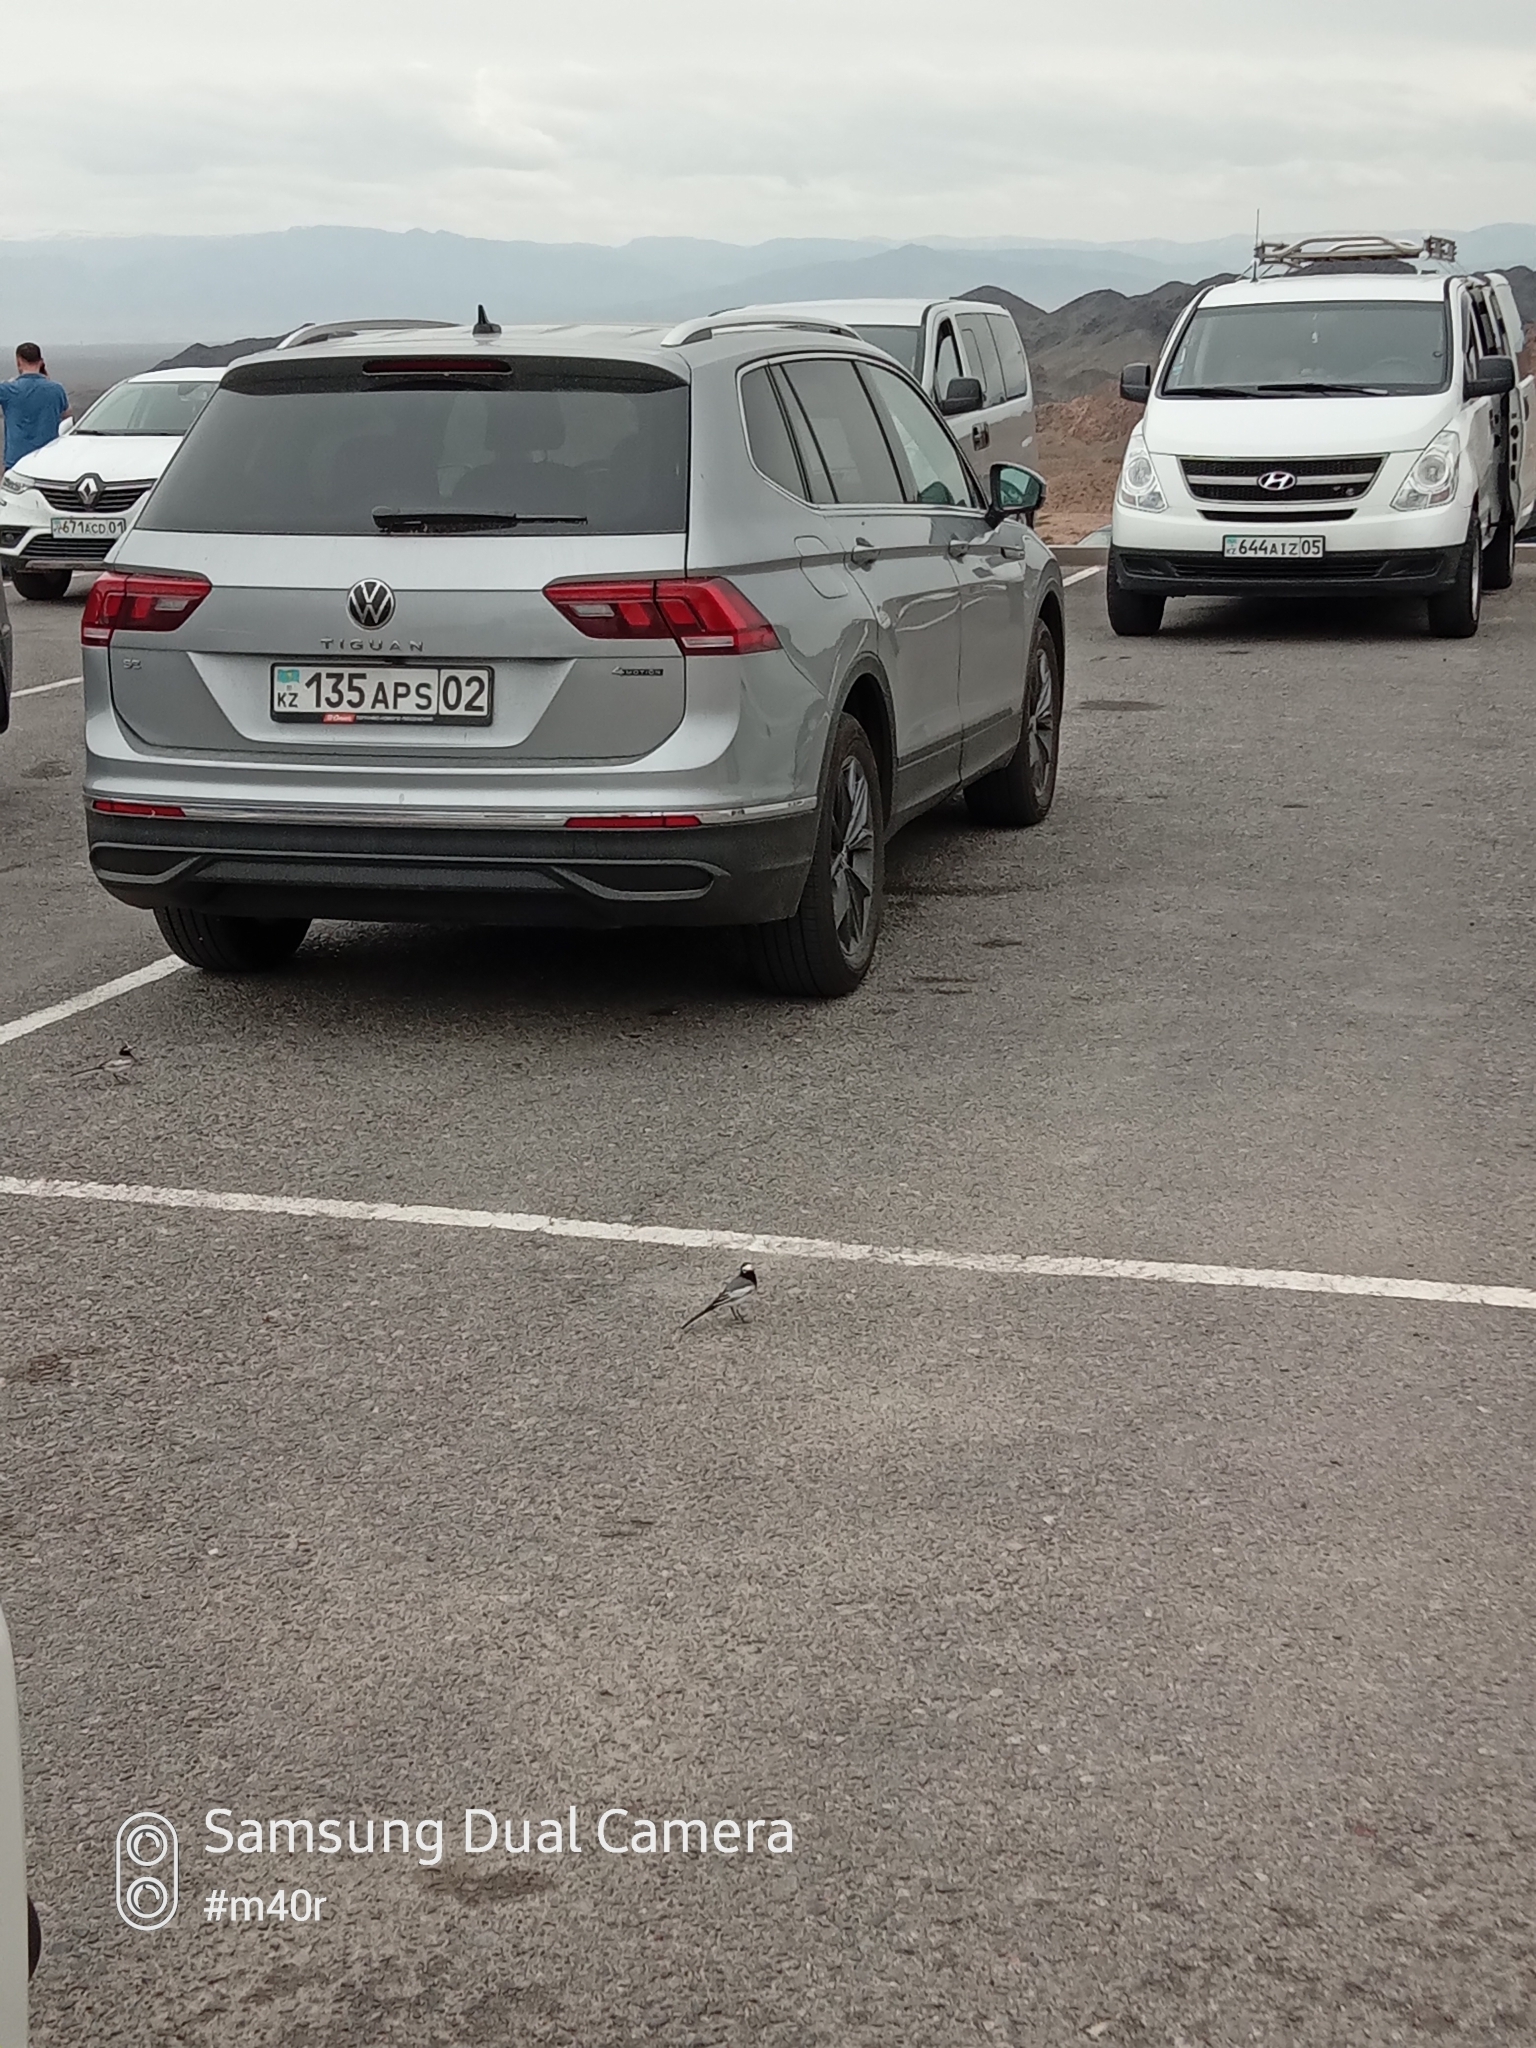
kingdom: Animalia
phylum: Chordata
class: Aves
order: Passeriformes
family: Motacillidae
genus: Motacilla
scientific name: Motacilla alba
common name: White wagtail
